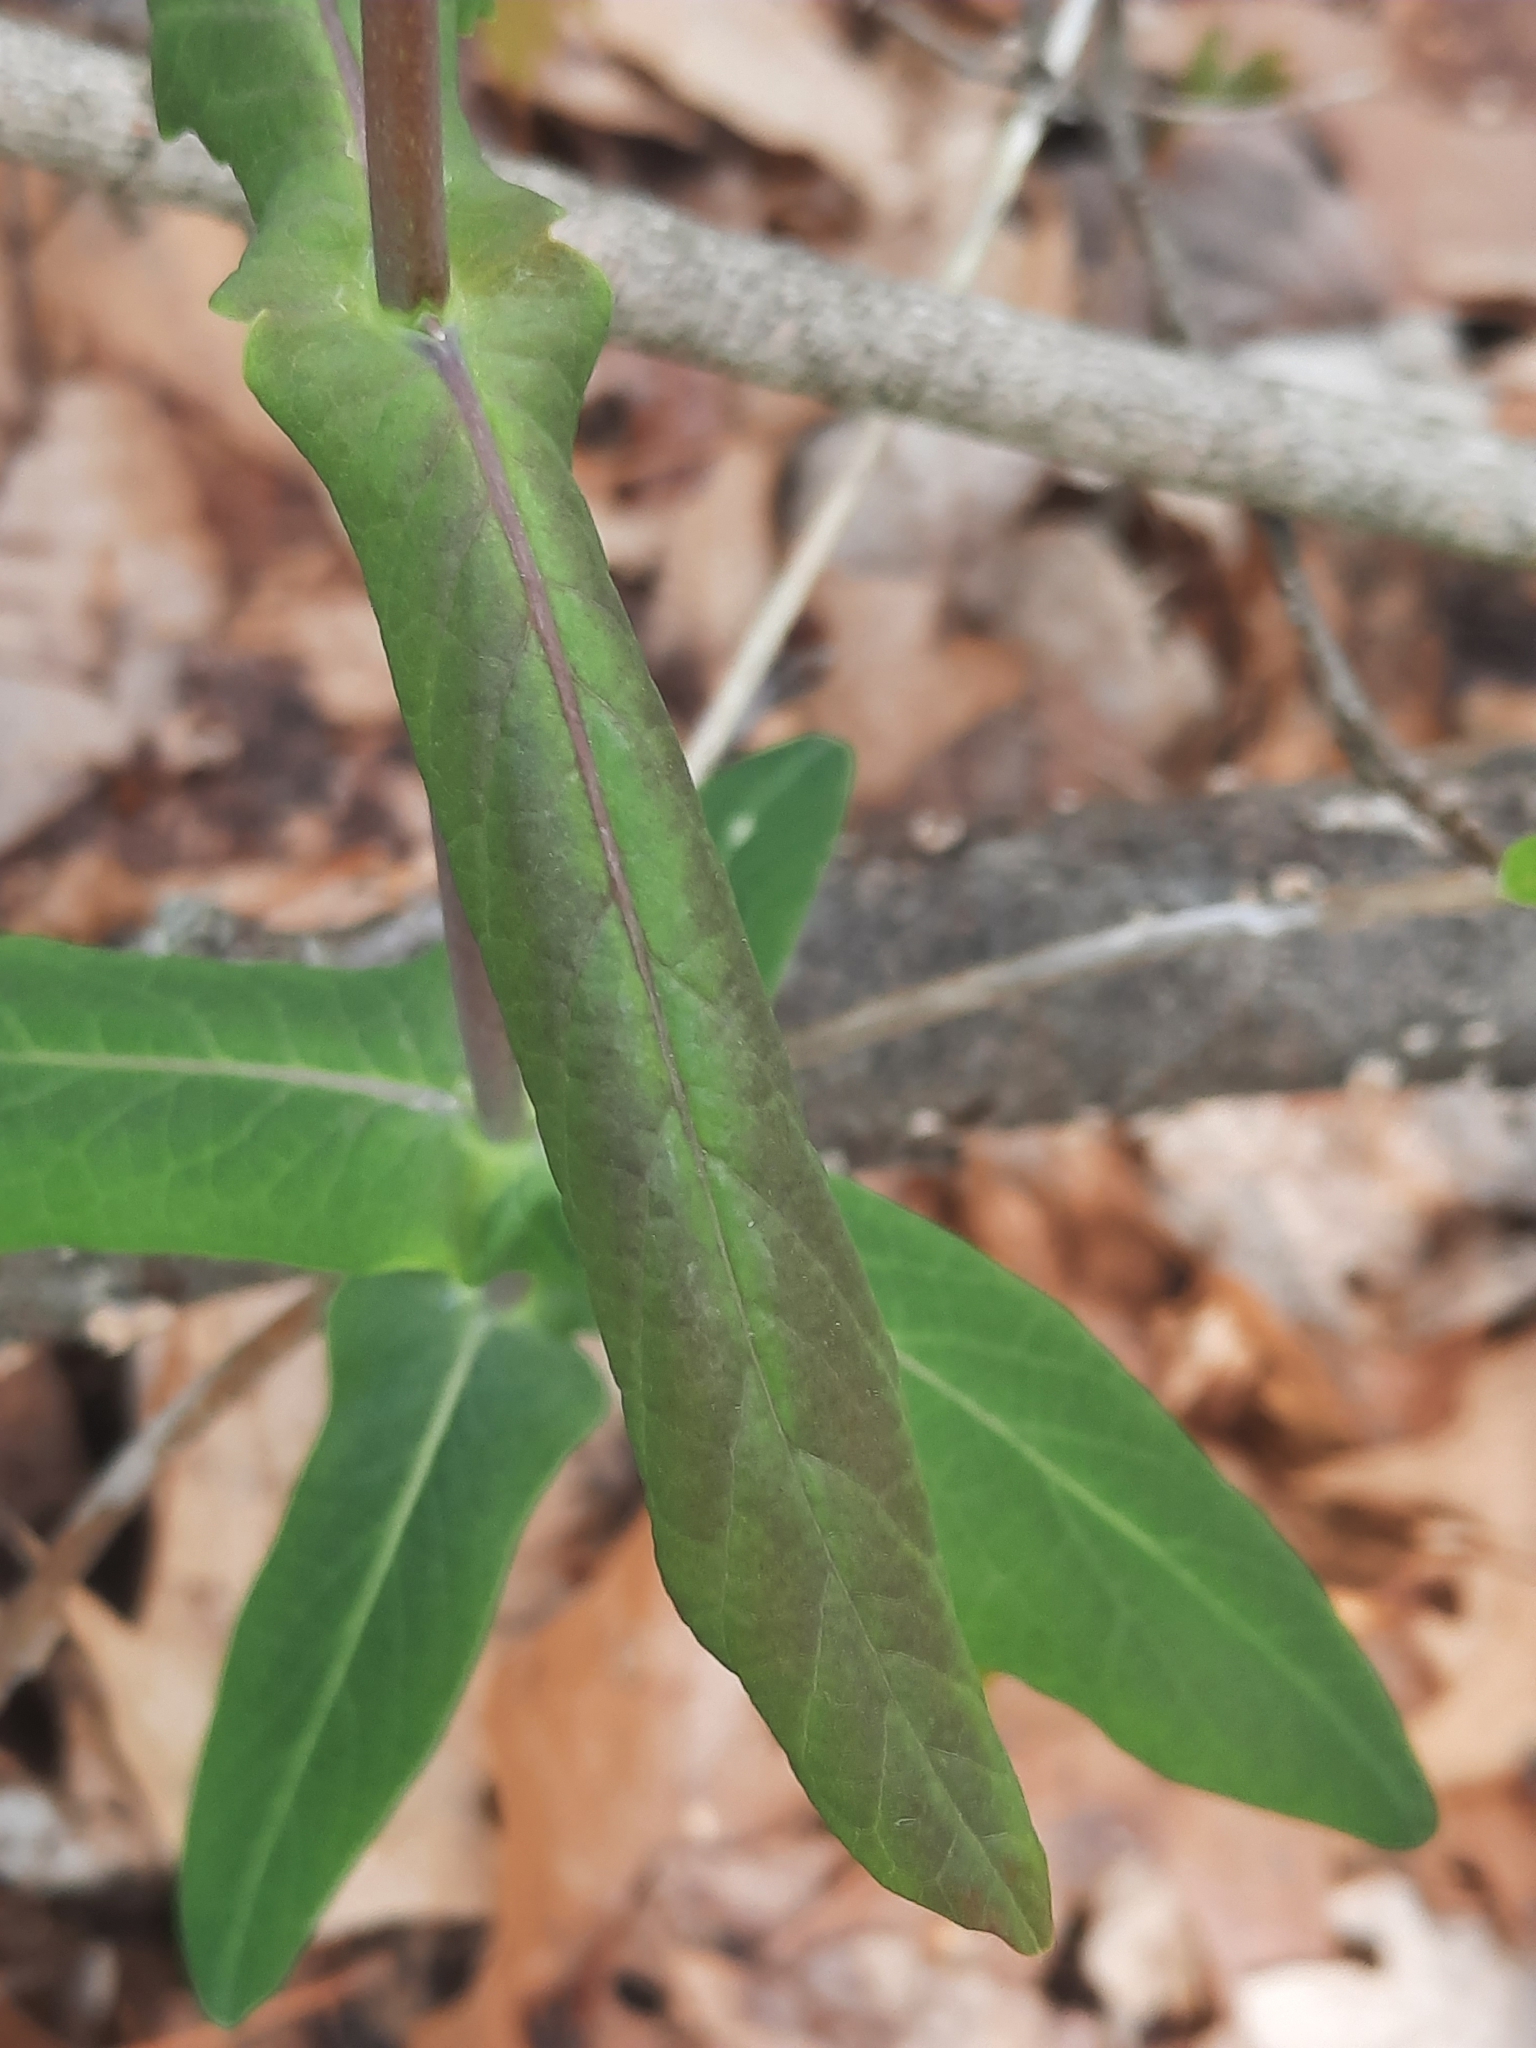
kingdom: Plantae
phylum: Tracheophyta
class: Magnoliopsida
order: Dipsacales
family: Caprifoliaceae
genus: Lonicera
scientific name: Lonicera dioica
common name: Limber honeysuckle
